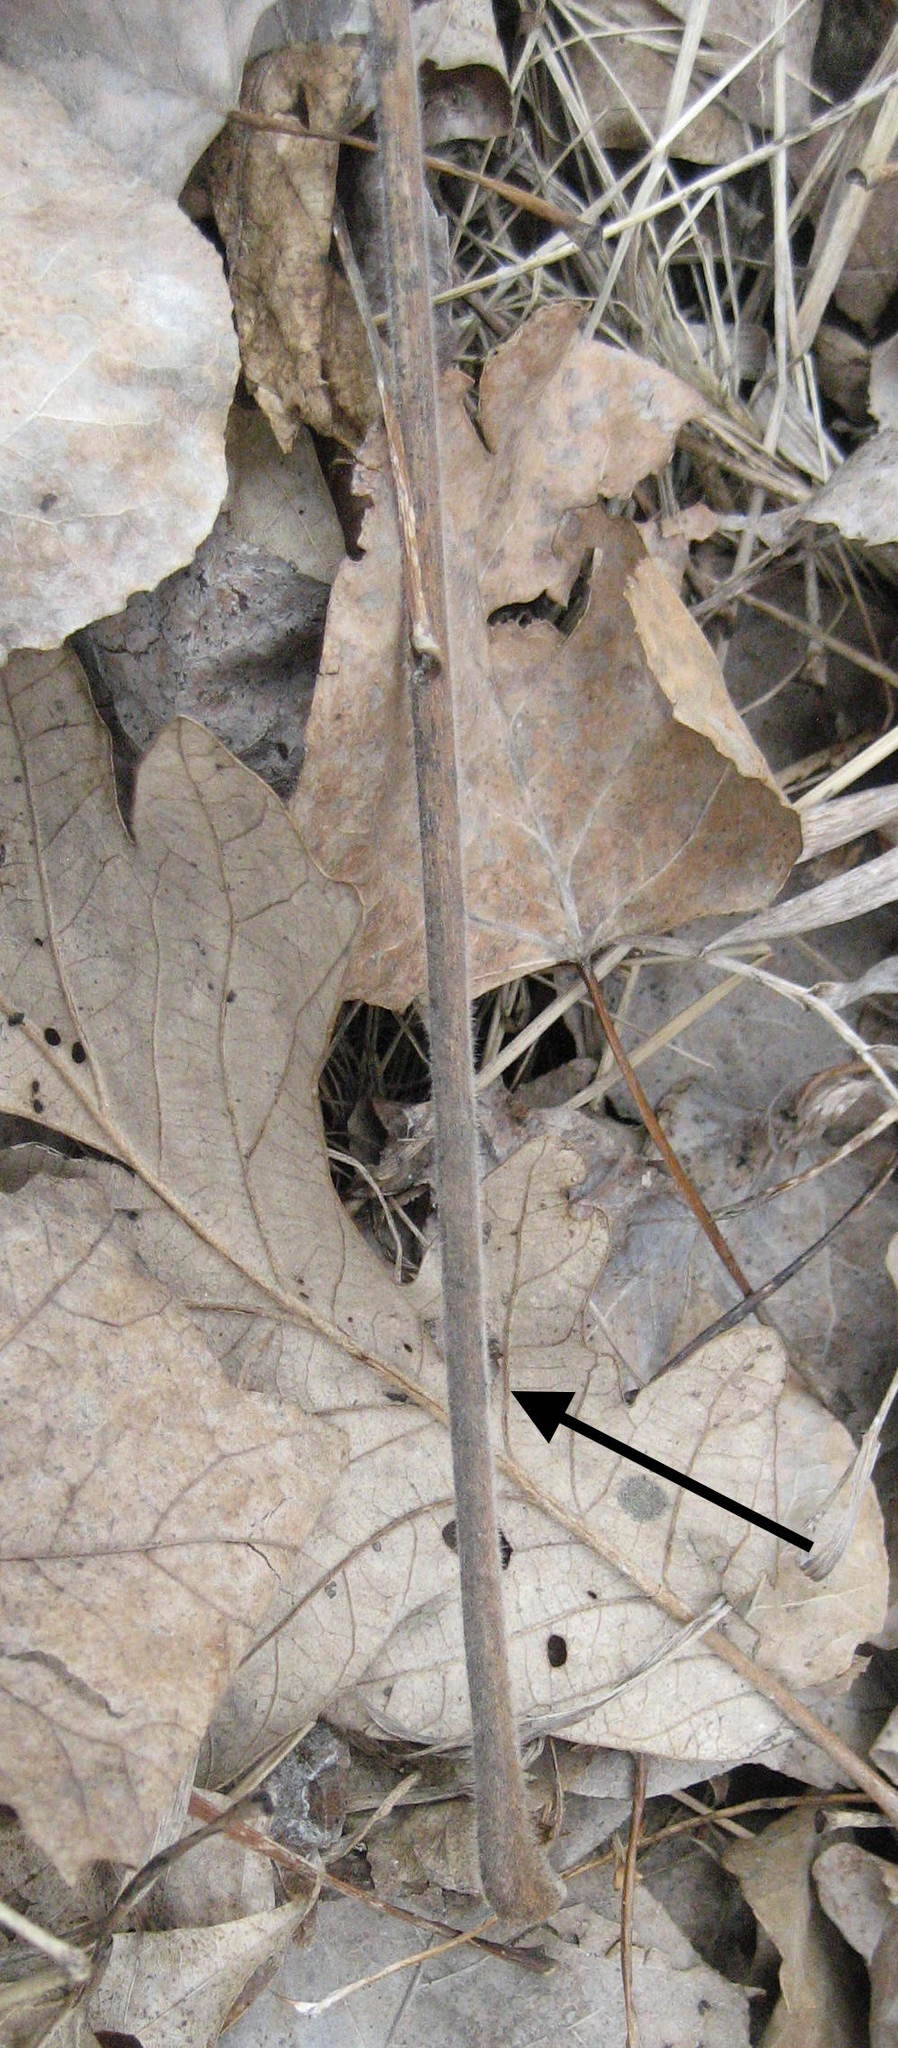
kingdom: Plantae
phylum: Tracheophyta
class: Magnoliopsida
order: Sapindales
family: Rutaceae
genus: Zanthoxylum
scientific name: Zanthoxylum americanum
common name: Northern prickly-ash
